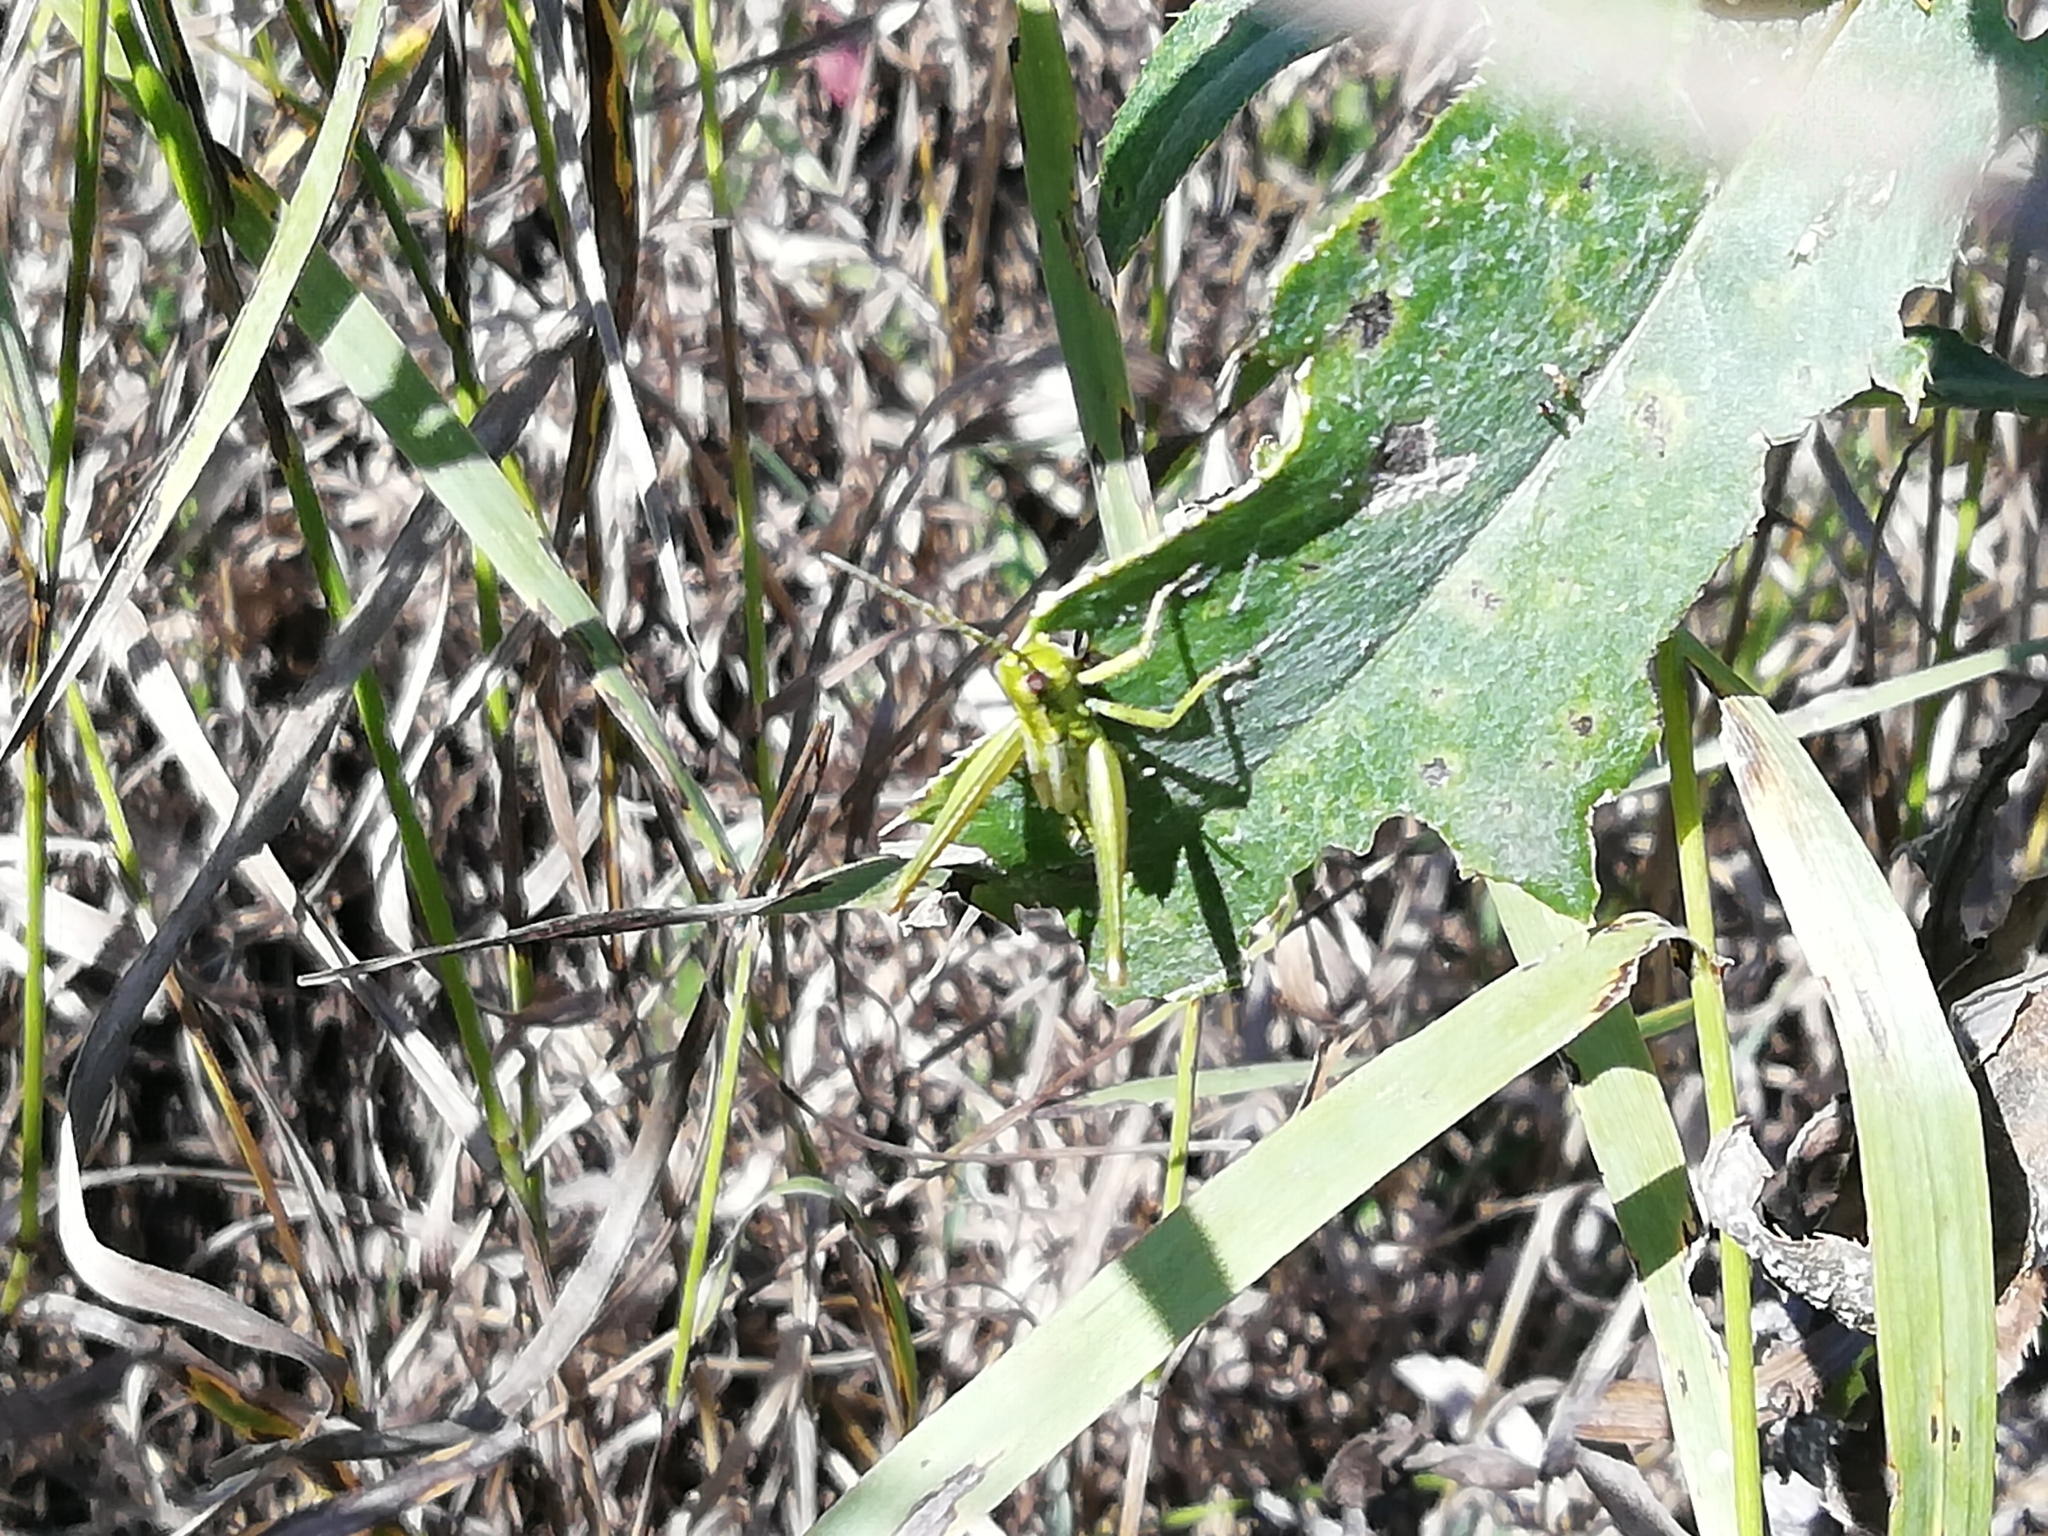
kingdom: Animalia
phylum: Arthropoda
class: Insecta
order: Orthoptera
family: Acrididae
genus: Euthystira
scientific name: Euthystira brachyptera
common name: Small gold grasshopper
